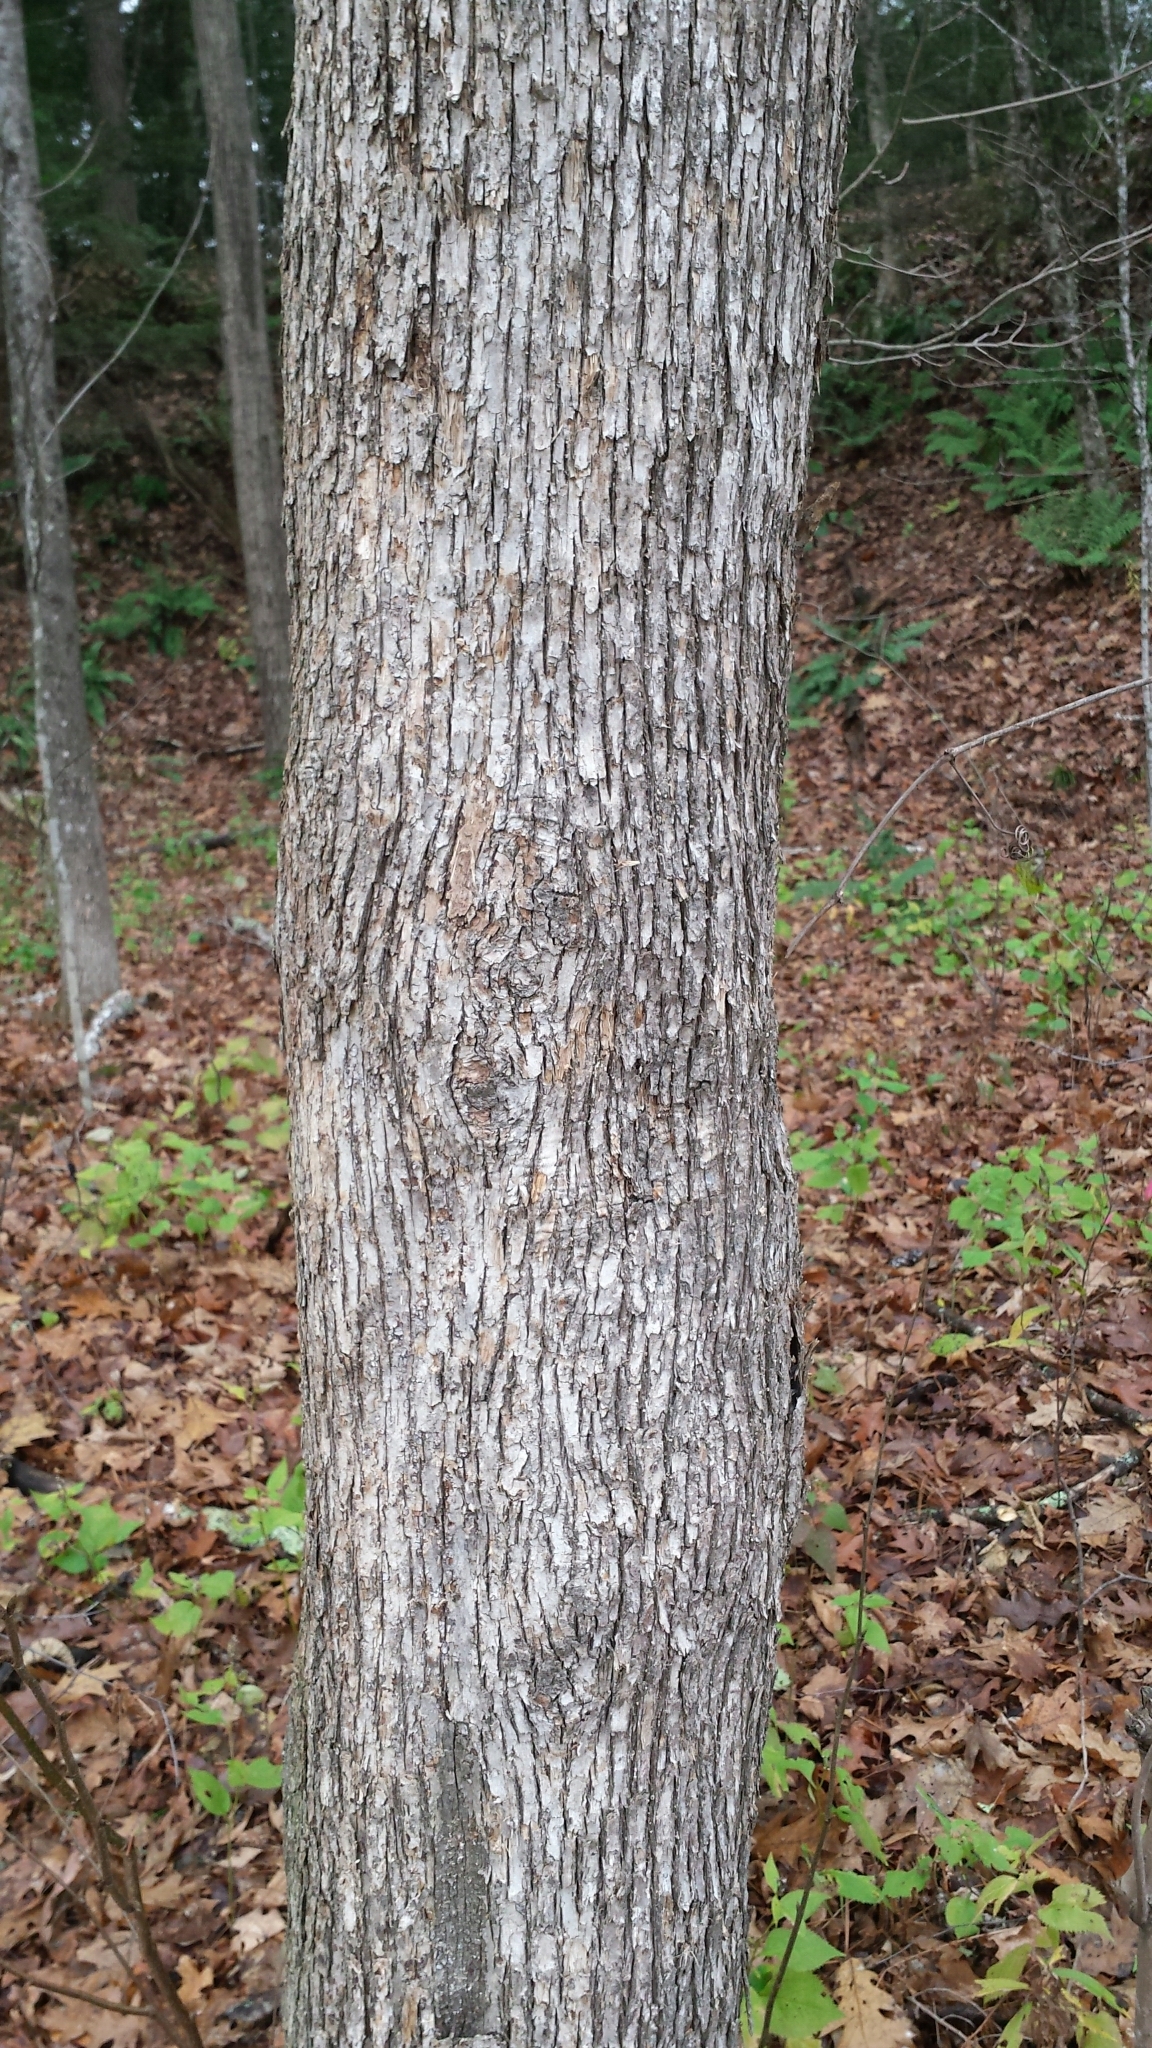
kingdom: Plantae
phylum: Tracheophyta
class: Magnoliopsida
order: Fagales
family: Betulaceae
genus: Ostrya
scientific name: Ostrya virginiana
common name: Ironwood
